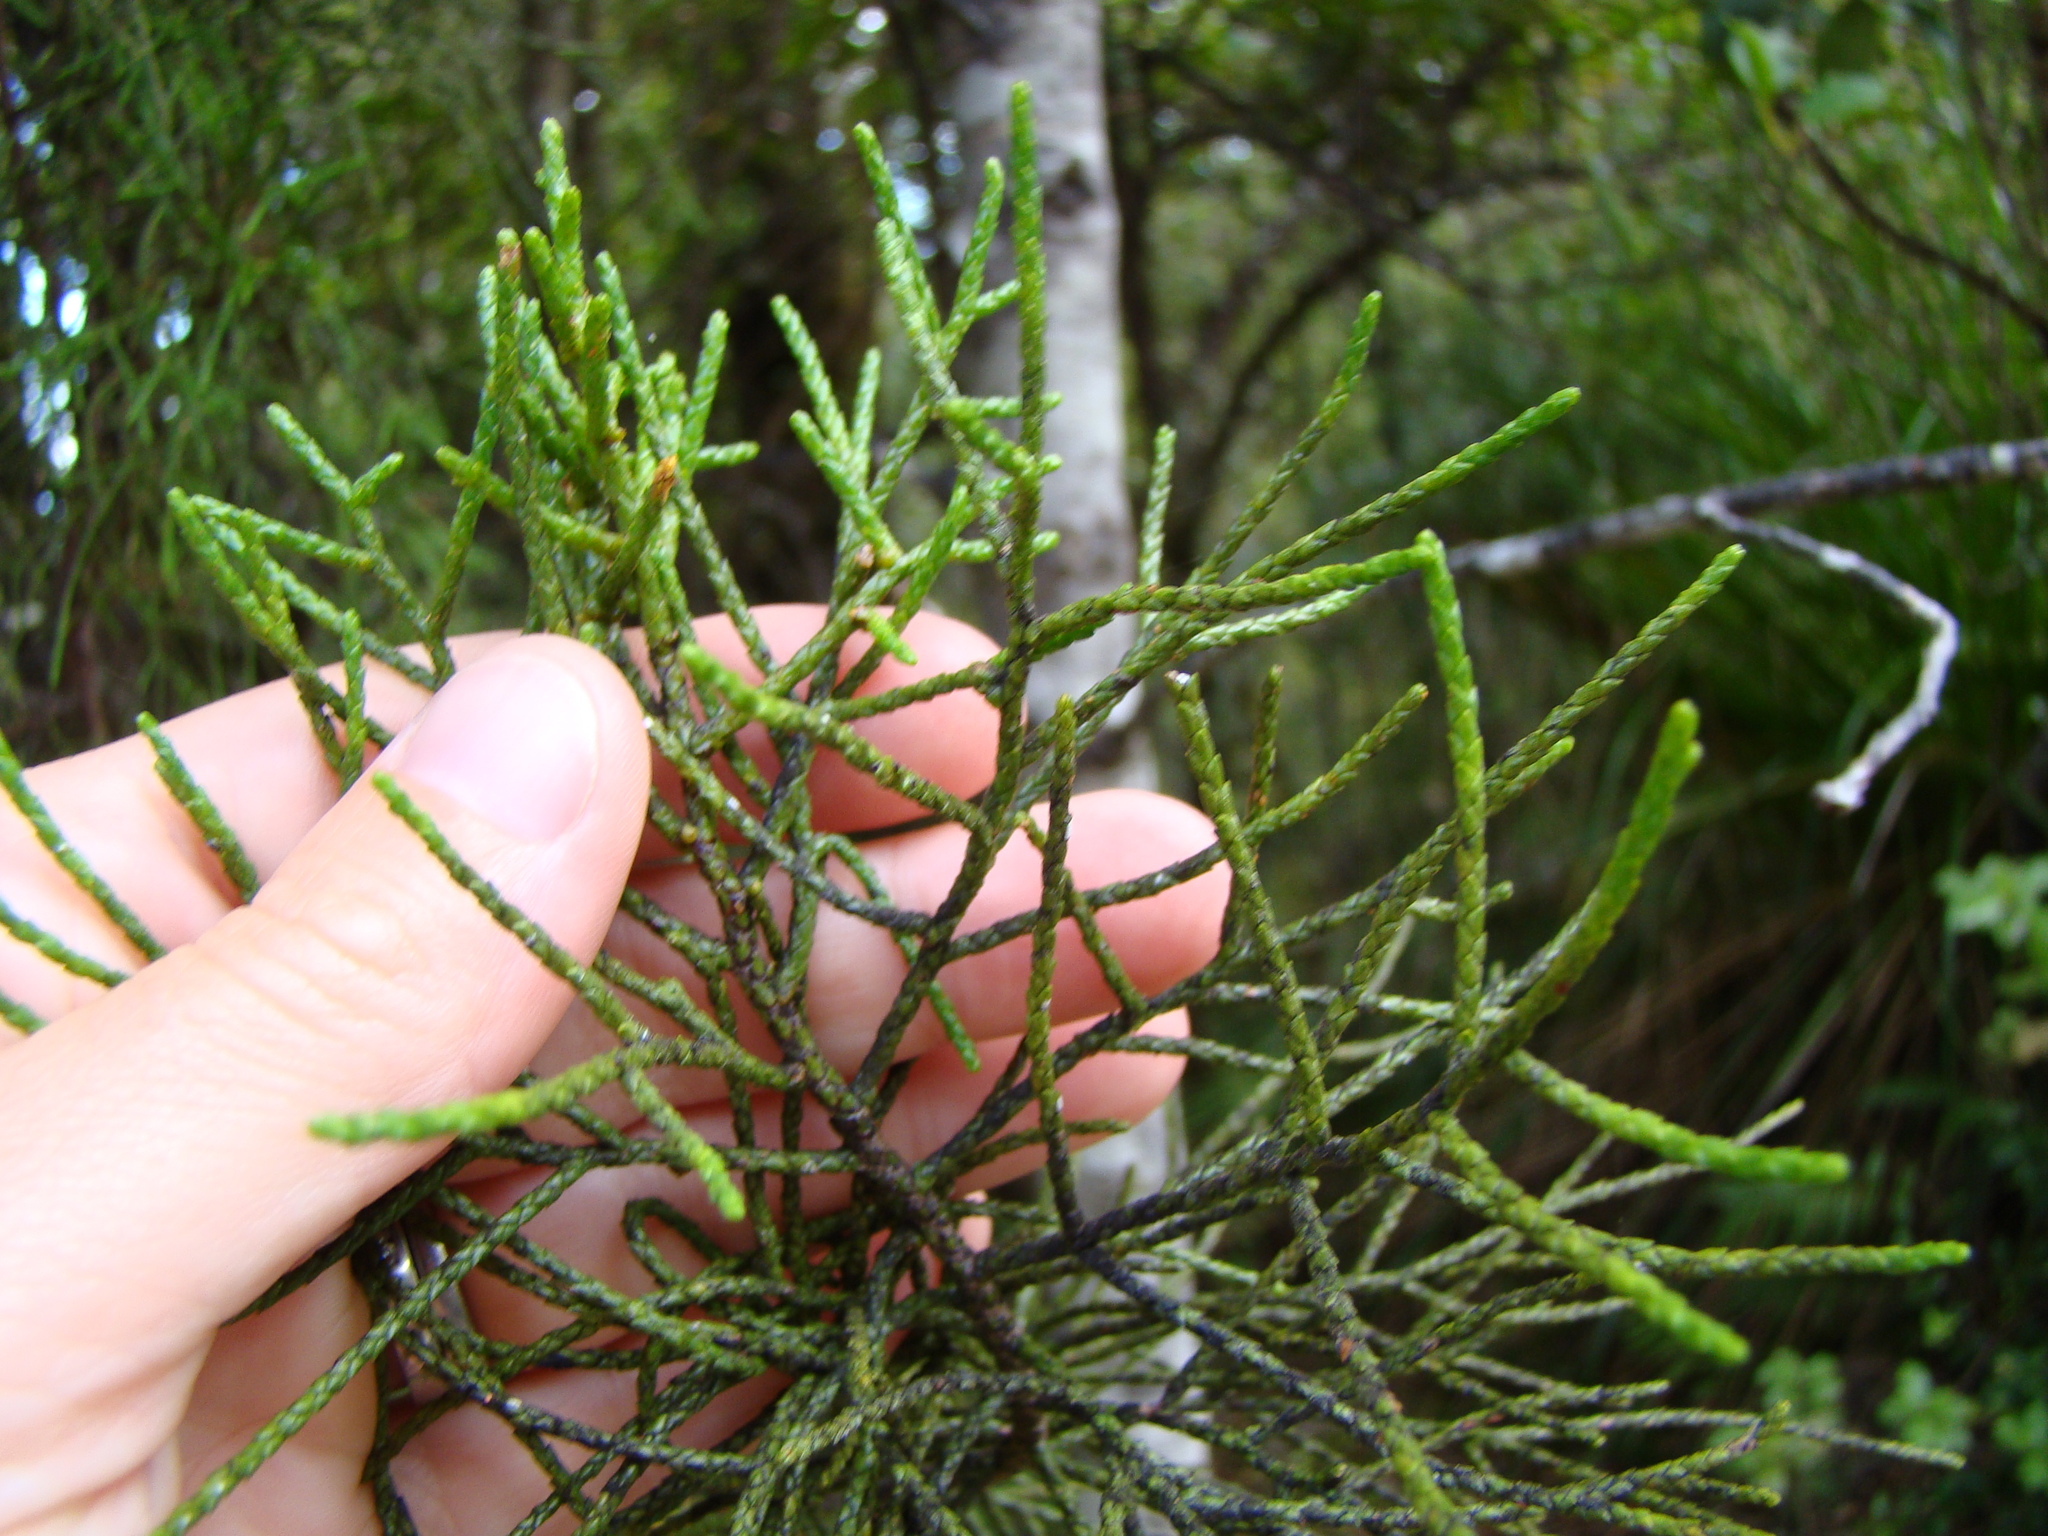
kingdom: Plantae
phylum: Tracheophyta
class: Pinopsida
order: Pinales
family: Podocarpaceae
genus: Manoao
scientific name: Manoao colensoi
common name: Silver pine
